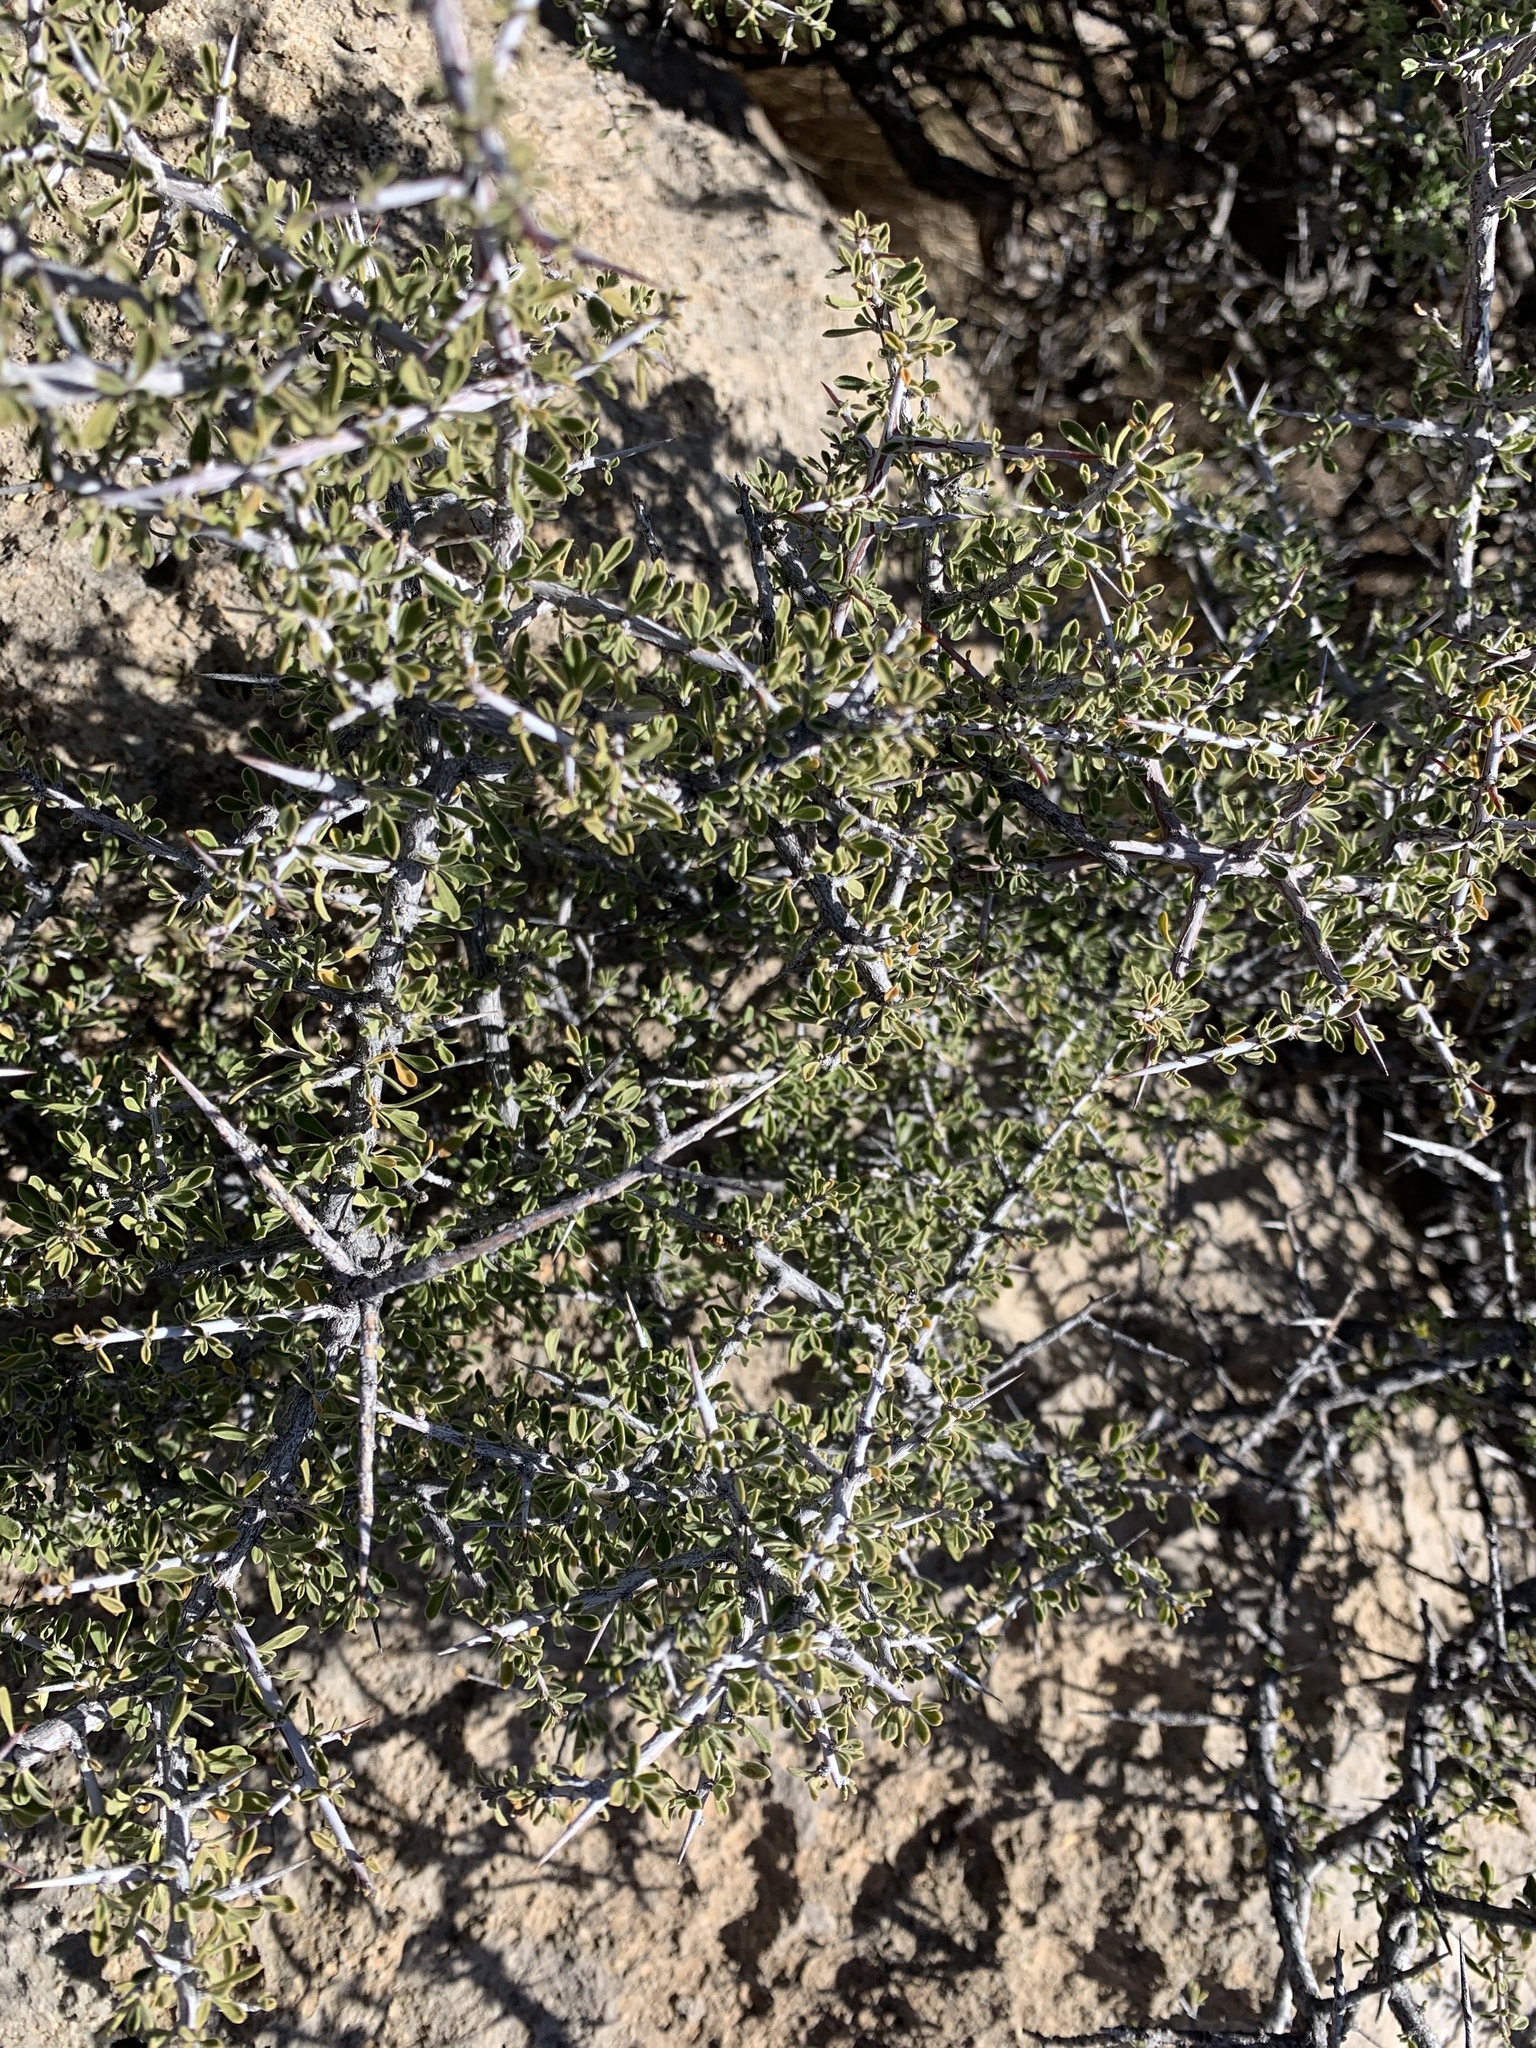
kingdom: Plantae
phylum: Tracheophyta
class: Magnoliopsida
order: Rosales
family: Rhamnaceae
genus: Condalia
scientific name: Condalia warnockii
